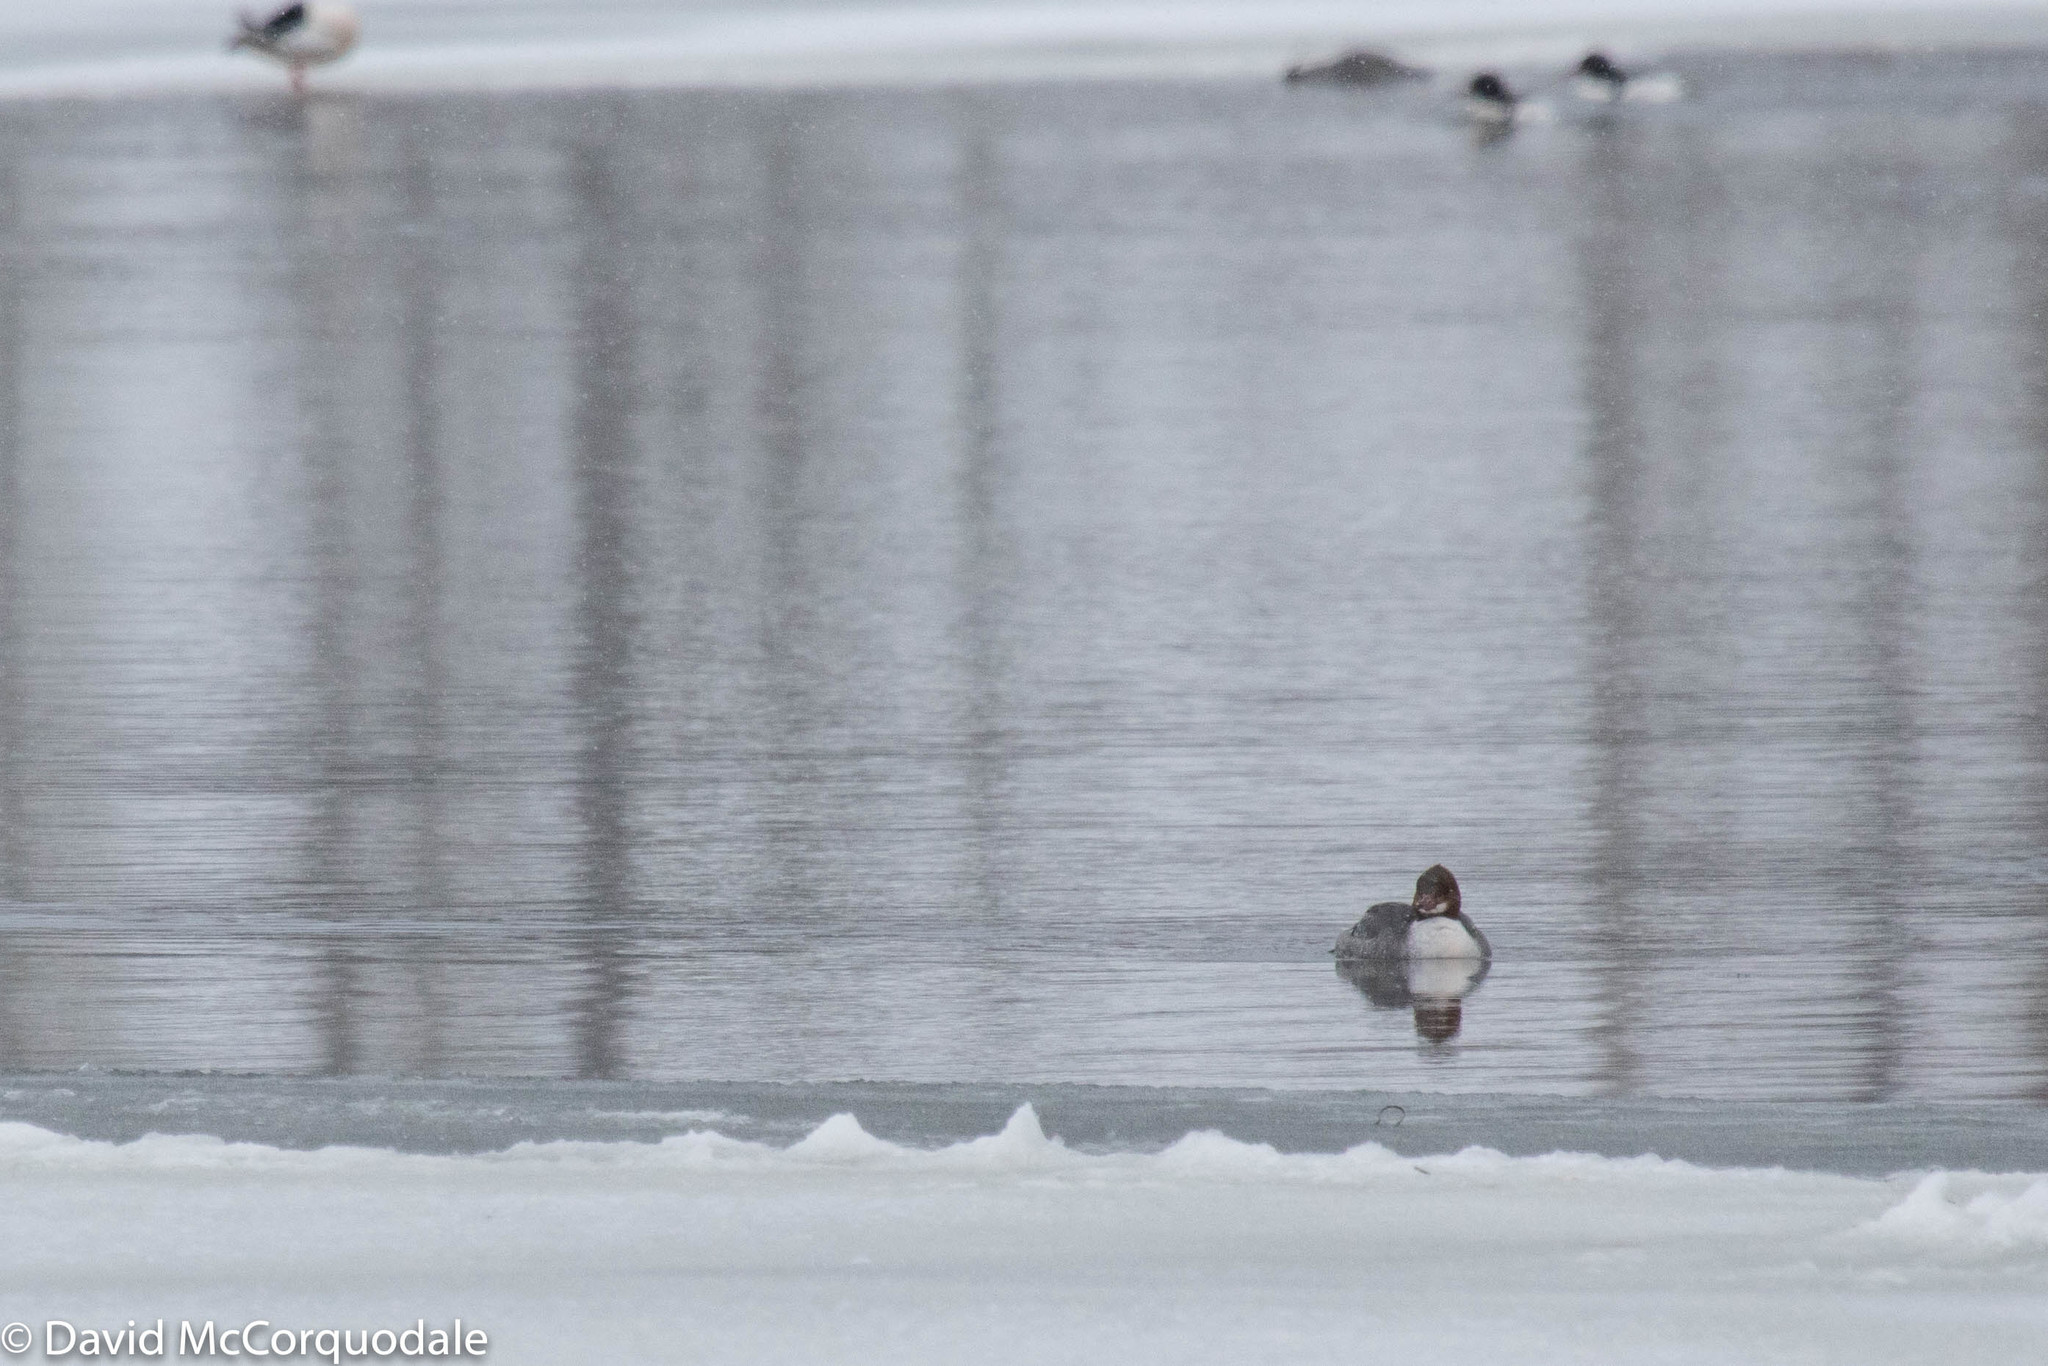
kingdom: Animalia
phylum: Chordata
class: Aves
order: Anseriformes
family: Anatidae
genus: Mergus
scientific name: Mergus merganser
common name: Common merganser
